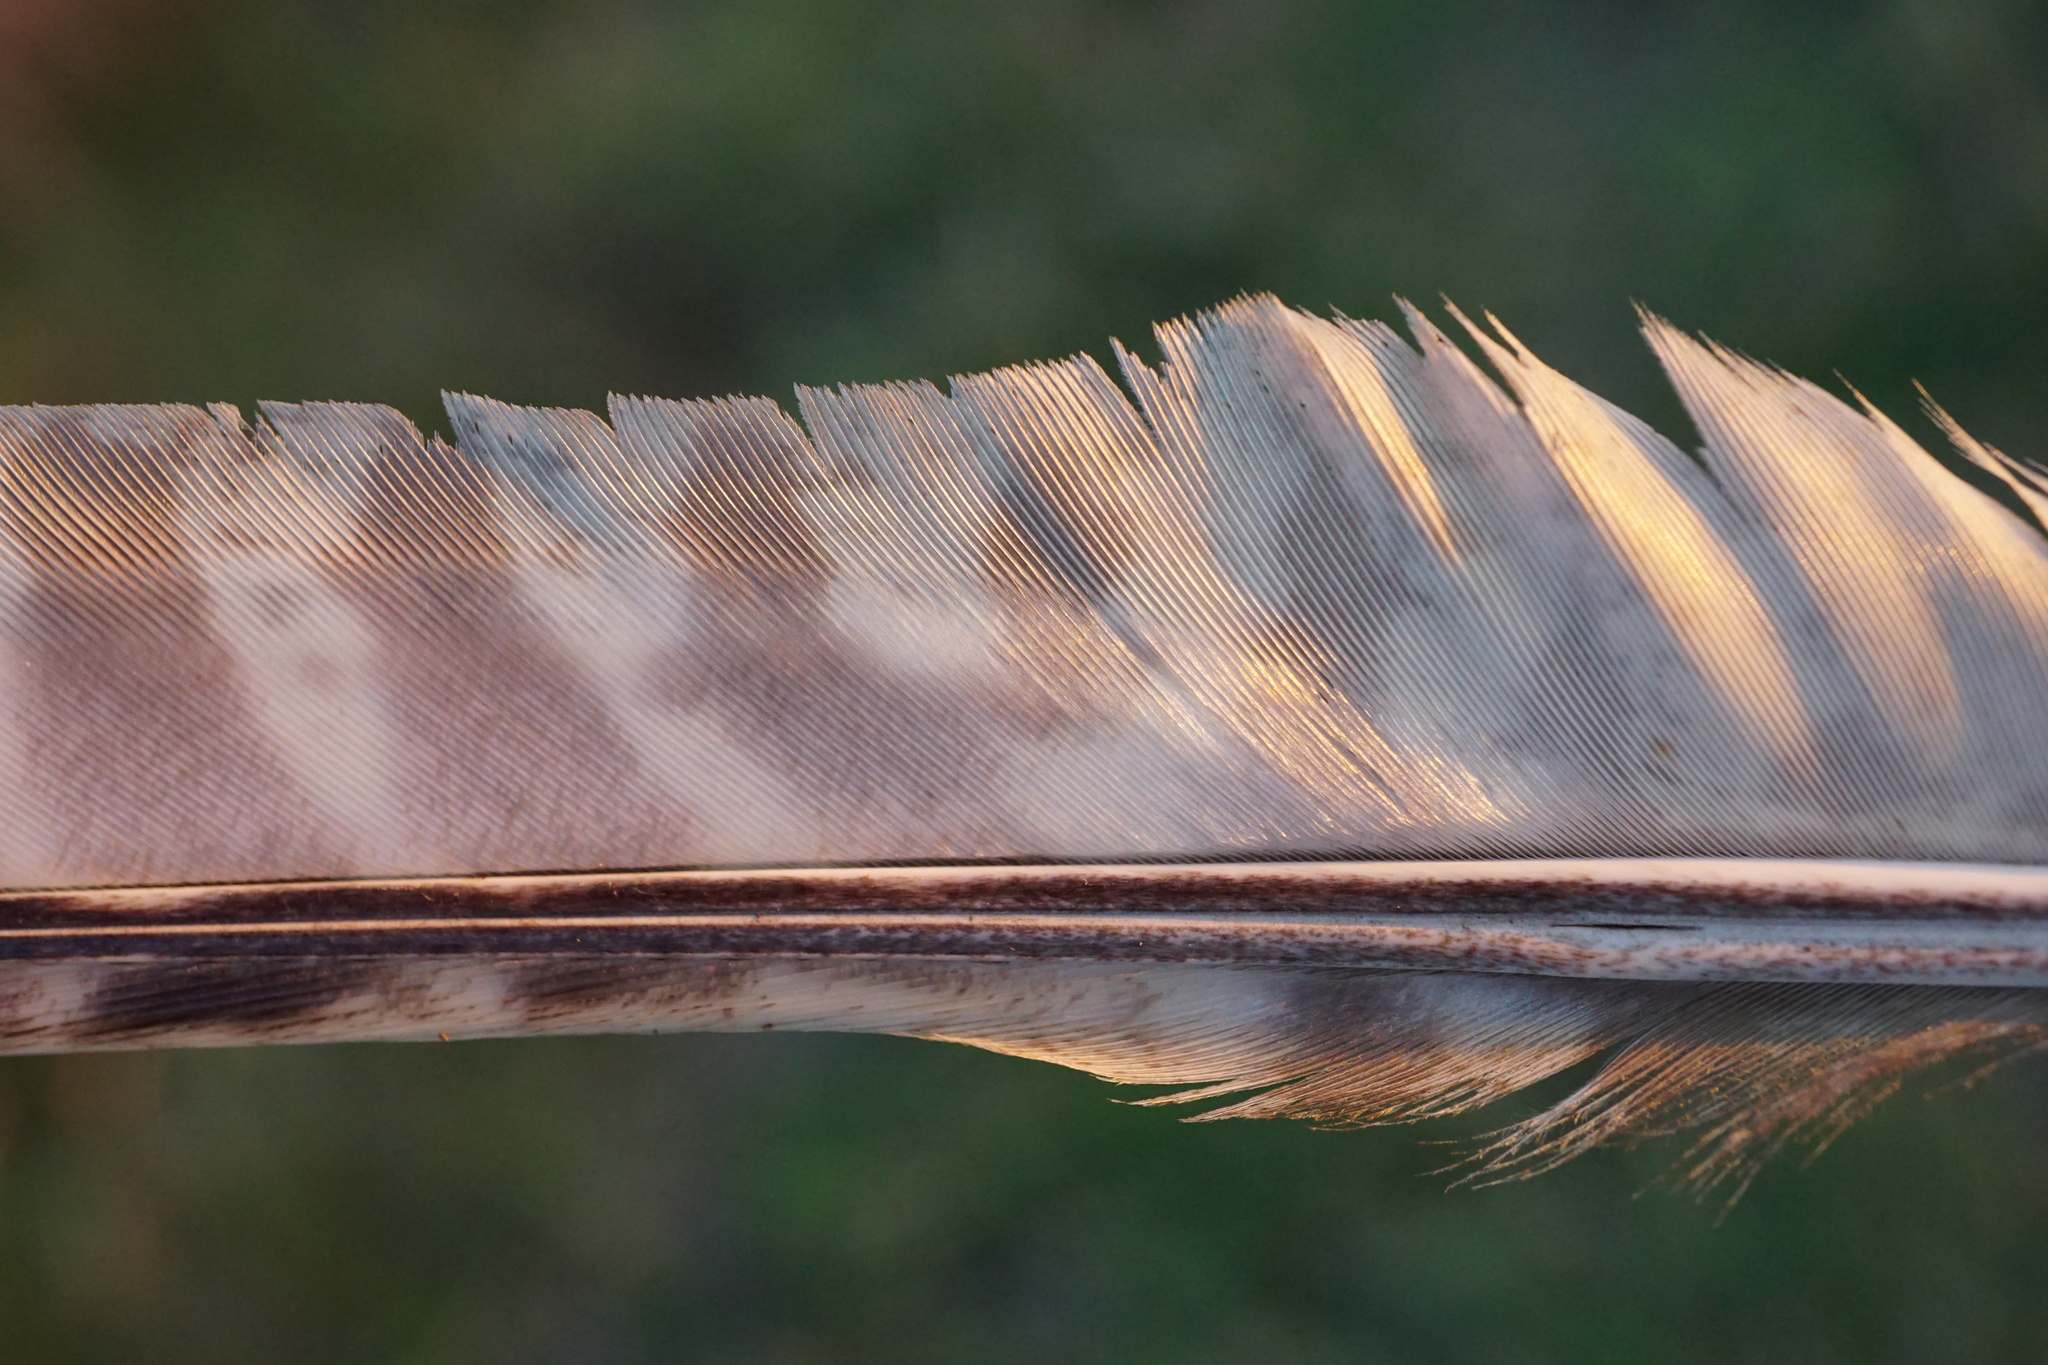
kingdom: Animalia
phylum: Chordata
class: Aves
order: Galliformes
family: Phasianidae
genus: Phasianus
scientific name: Phasianus colchicus
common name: Common pheasant
